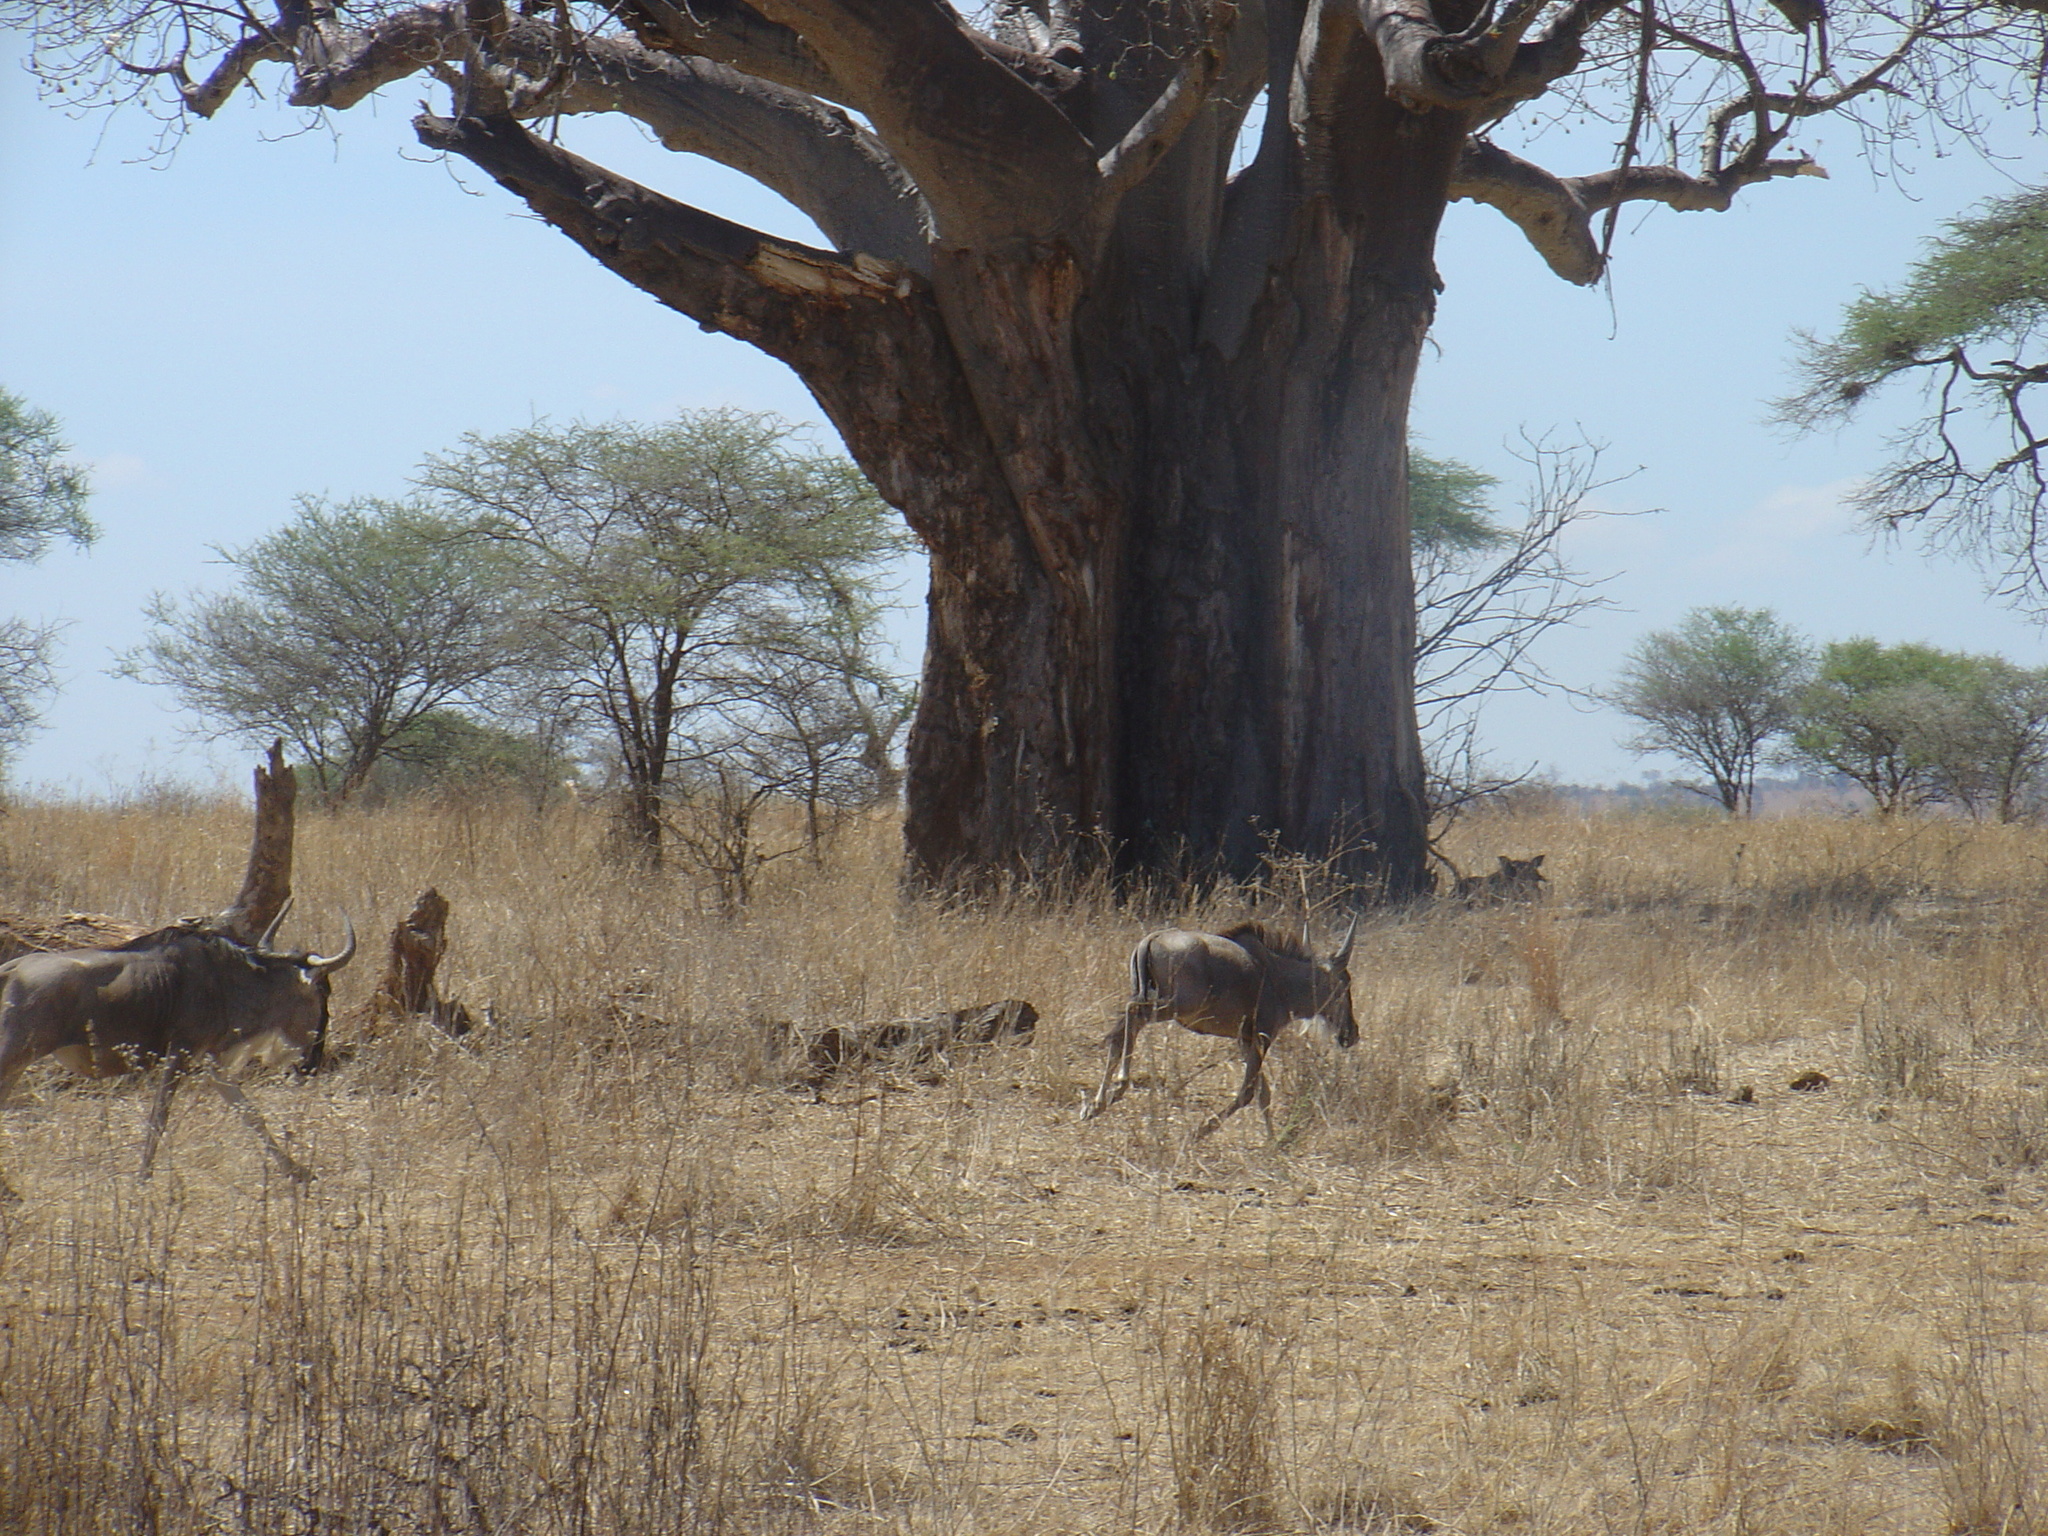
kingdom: Animalia
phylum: Chordata
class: Mammalia
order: Artiodactyla
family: Bovidae
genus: Connochaetes
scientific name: Connochaetes taurinus
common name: Blue wildebeest
